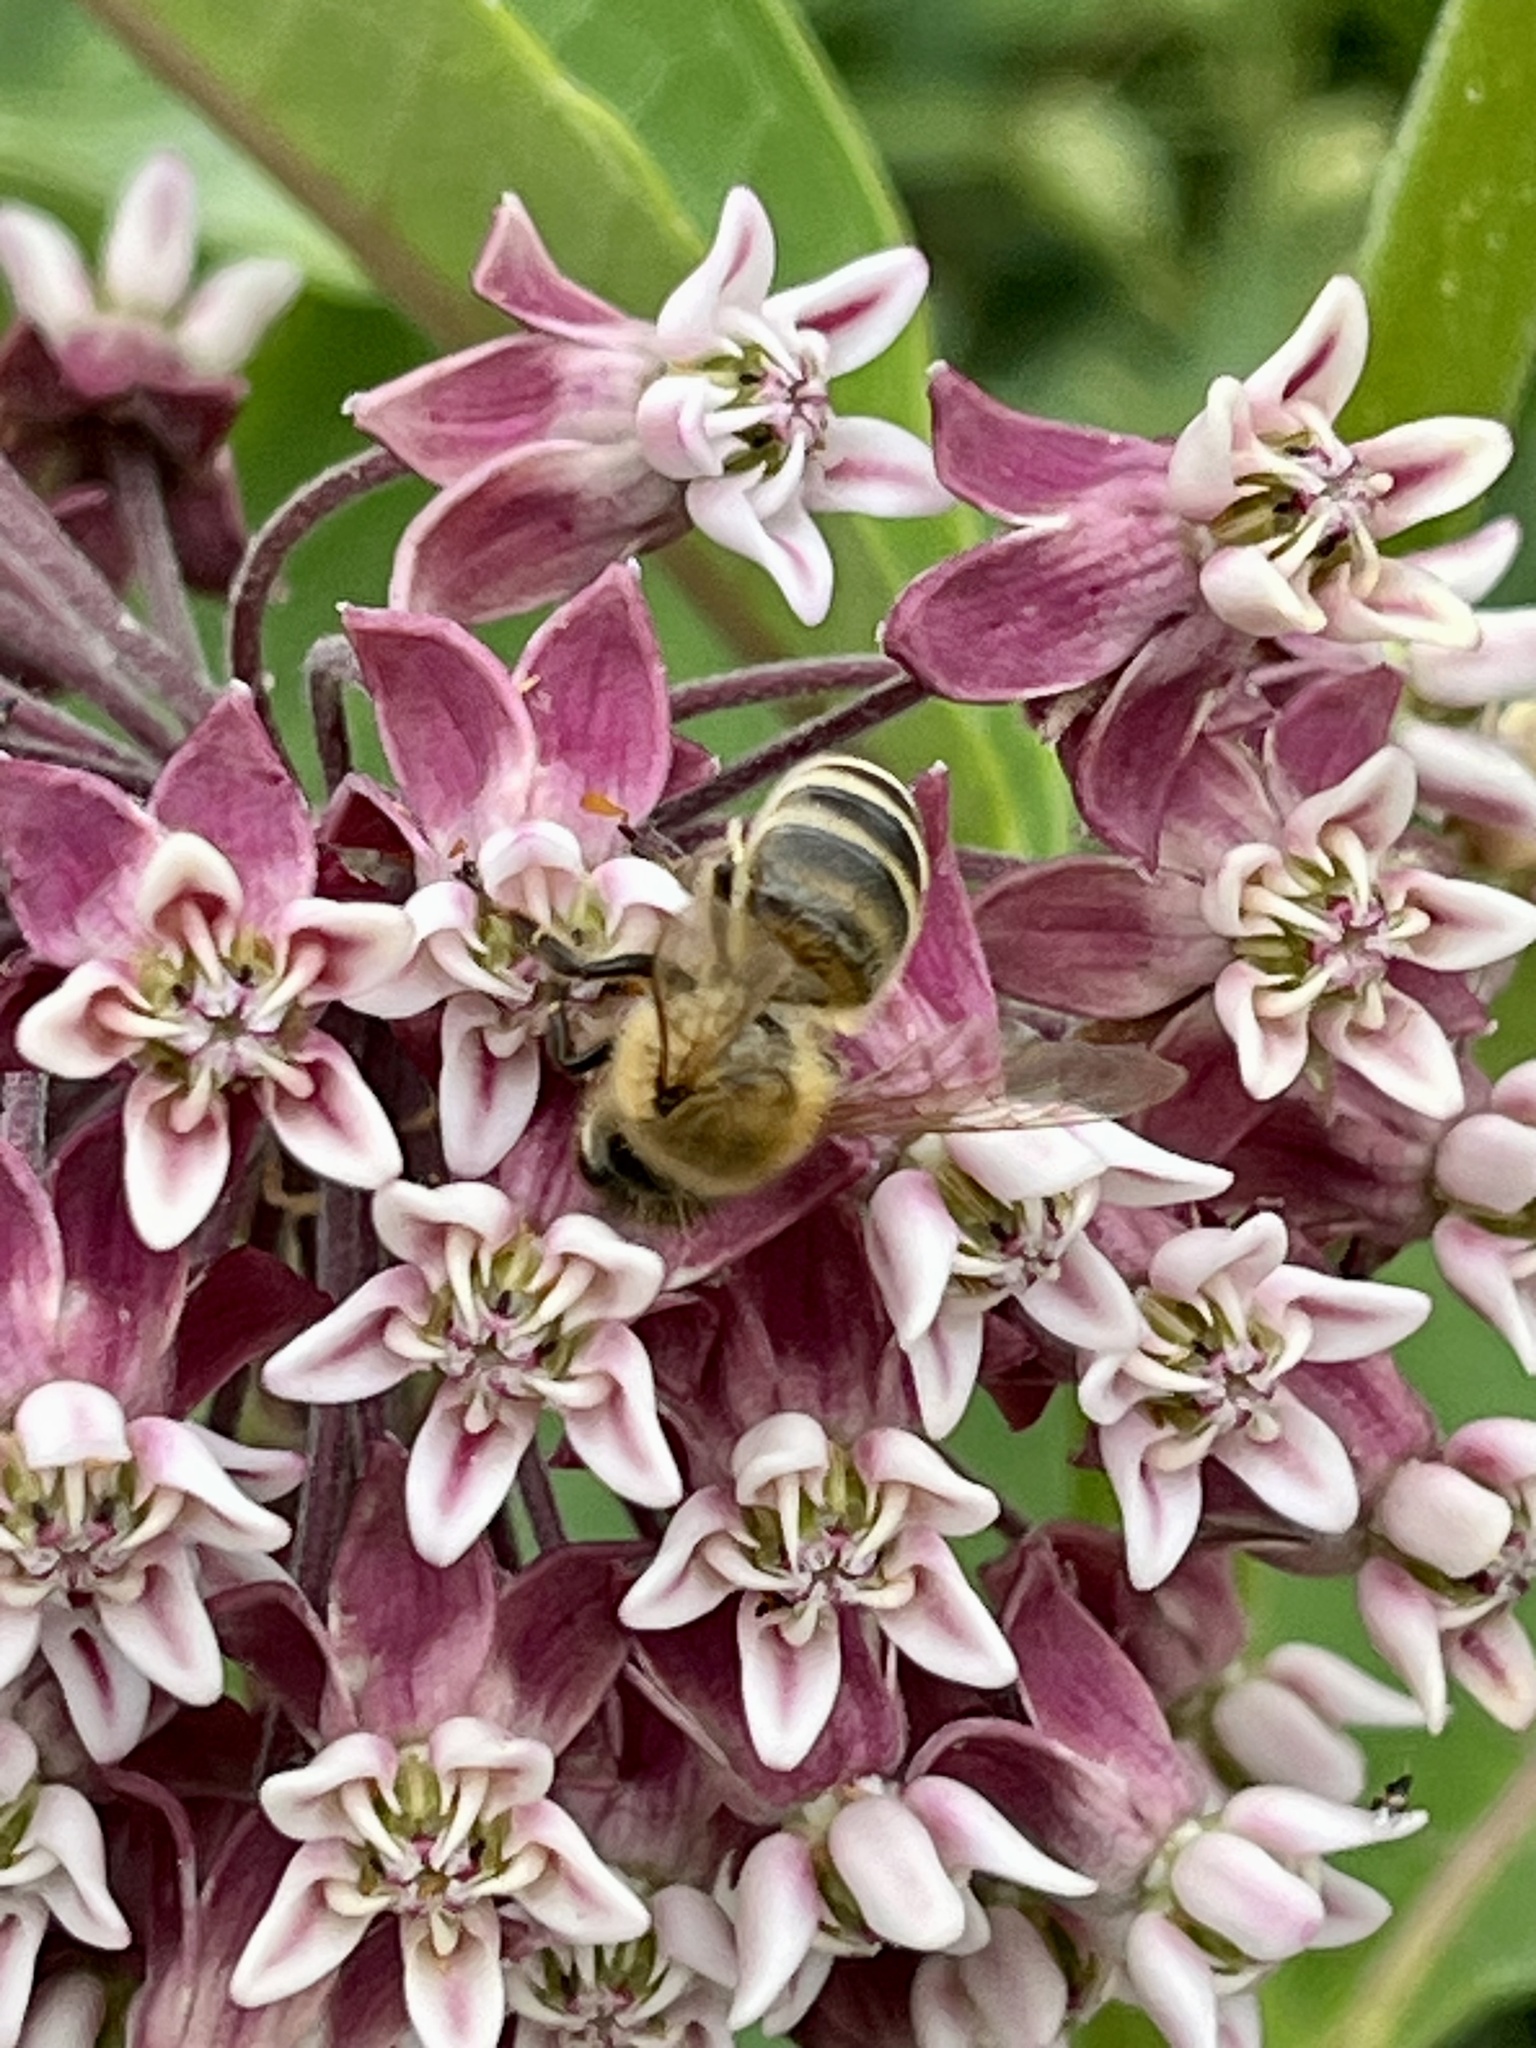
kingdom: Animalia
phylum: Arthropoda
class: Insecta
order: Hymenoptera
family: Apidae
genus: Apis
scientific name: Apis mellifera
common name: Honey bee
